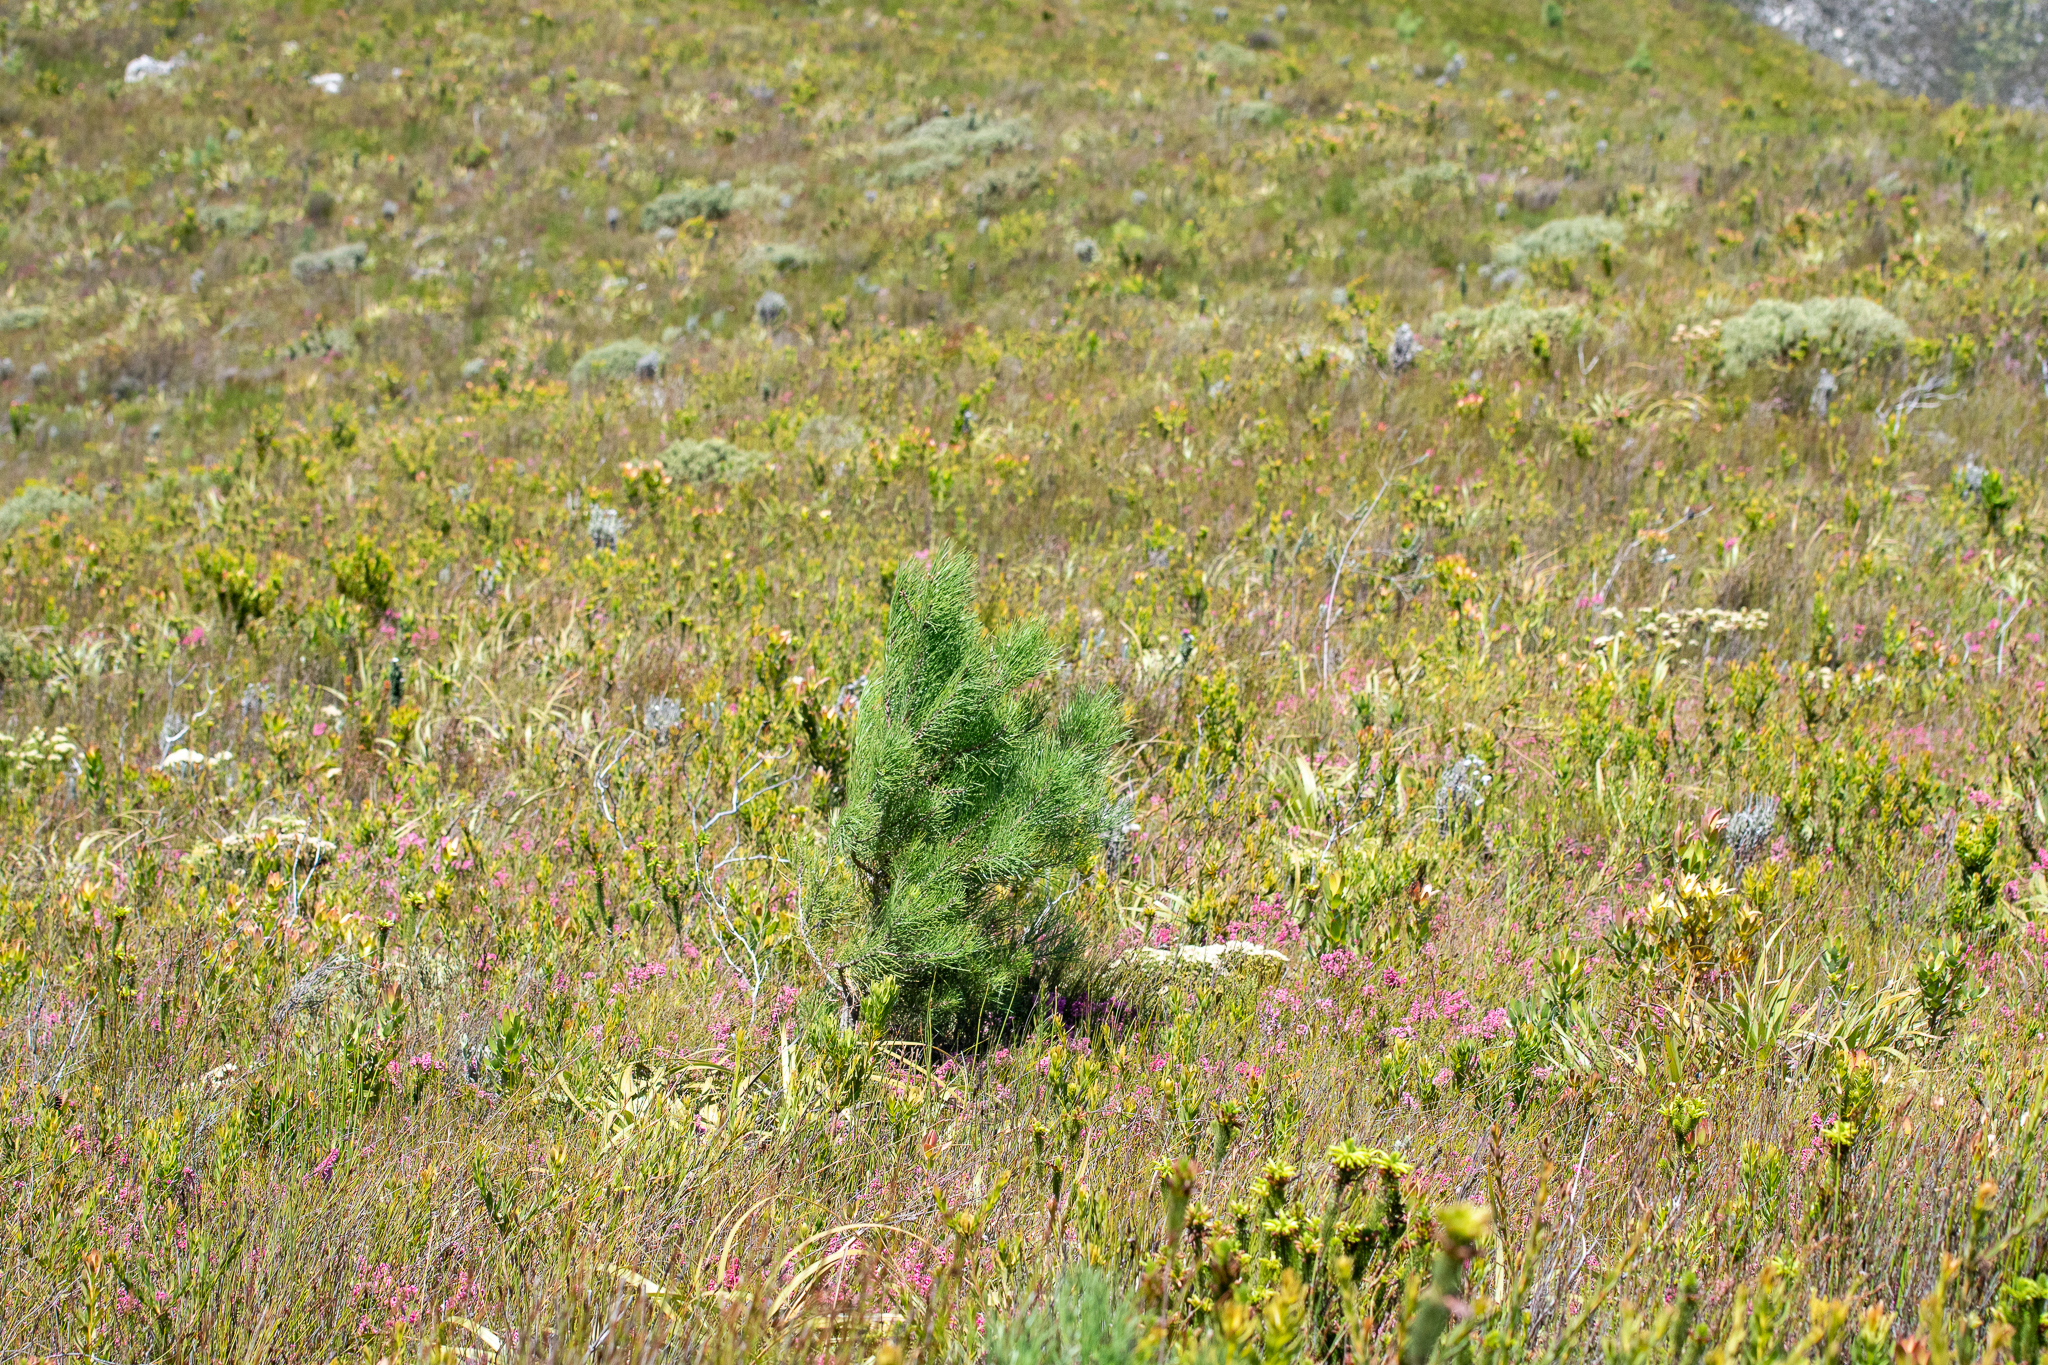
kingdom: Plantae
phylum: Tracheophyta
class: Pinopsida
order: Pinales
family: Pinaceae
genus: Pinus
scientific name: Pinus pinaster
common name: Maritime pine
